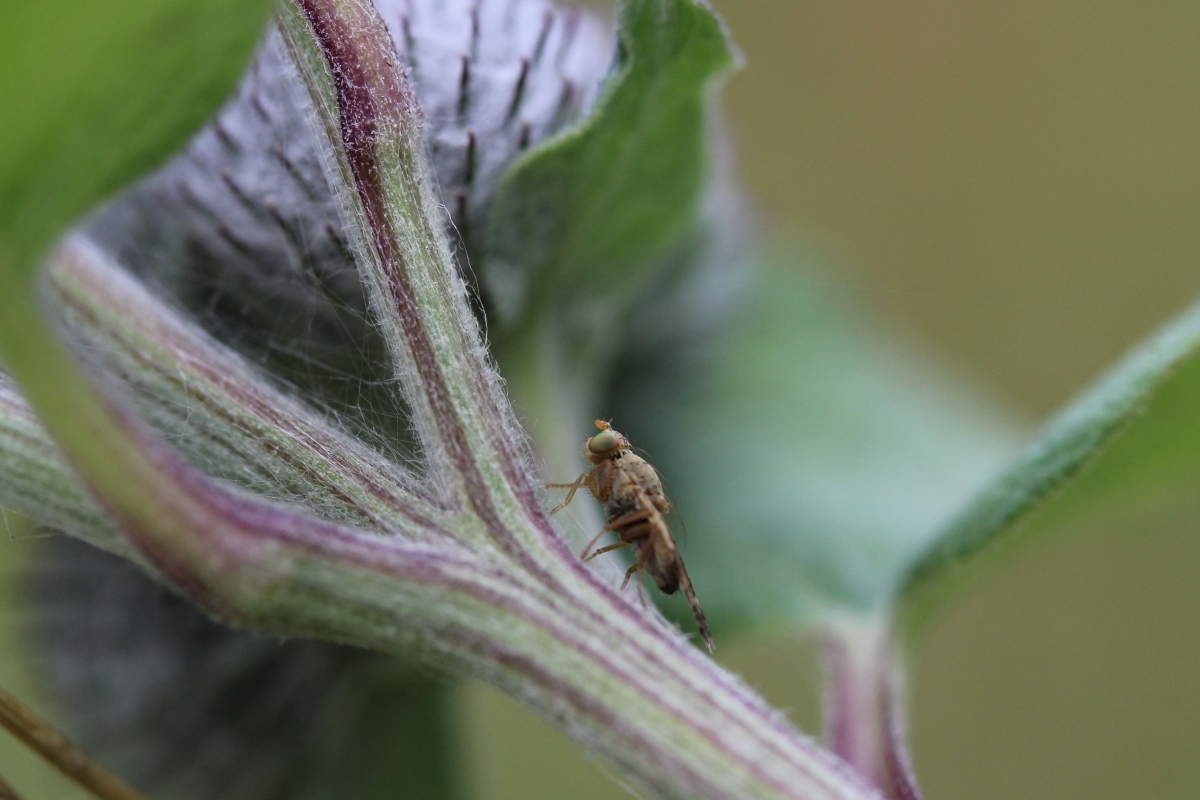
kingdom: Animalia
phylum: Arthropoda
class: Insecta
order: Diptera
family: Tephritidae
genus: Tephritis
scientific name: Tephritis bardanae
